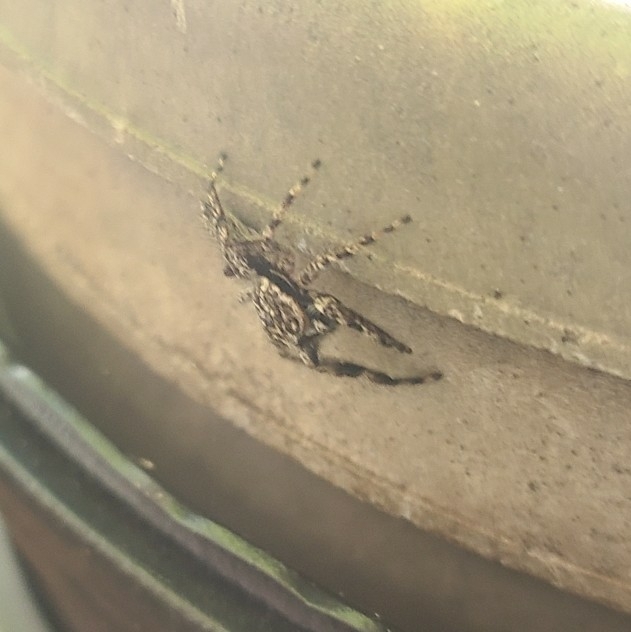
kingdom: Animalia
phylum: Arthropoda
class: Arachnida
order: Araneae
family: Salticidae
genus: Platycryptus
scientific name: Platycryptus undatus
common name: Tan jumping spider
